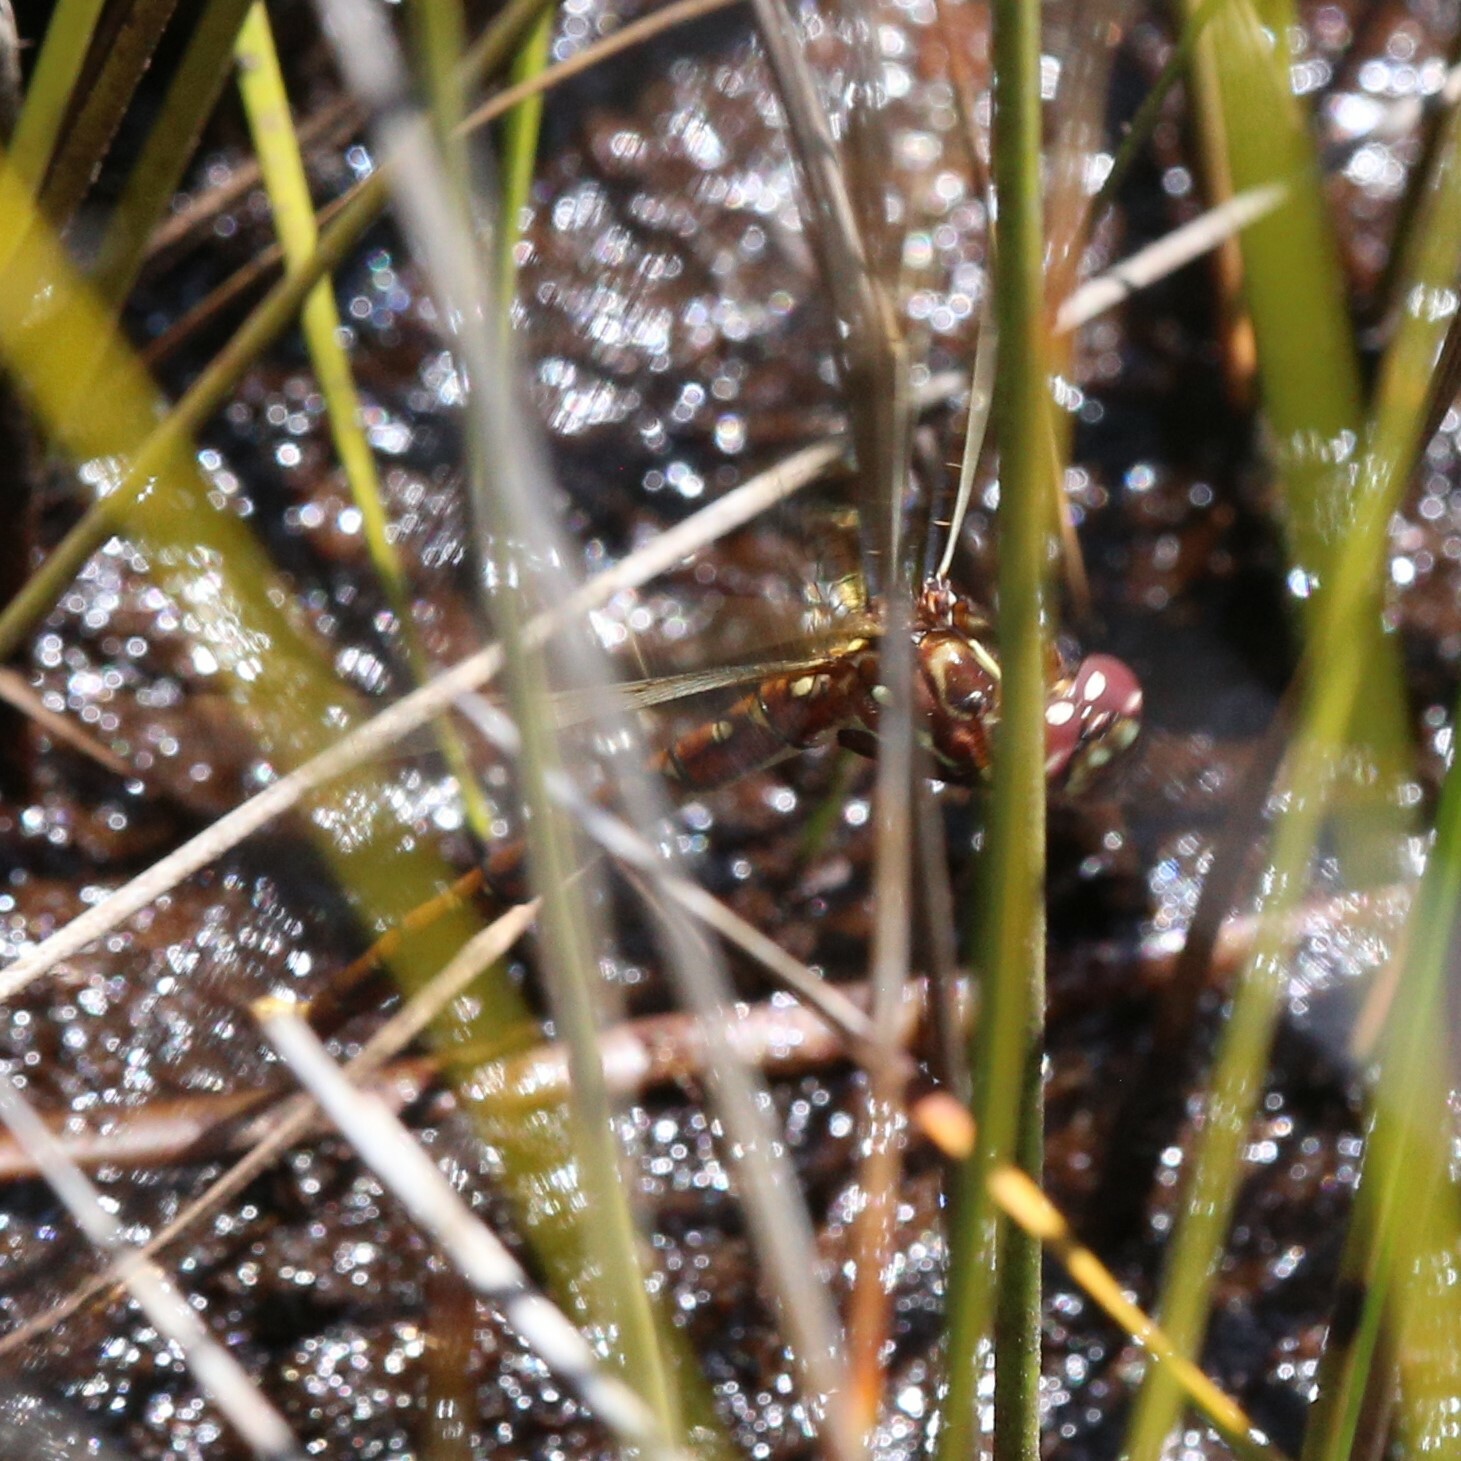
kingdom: Animalia
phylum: Arthropoda
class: Insecta
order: Odonata
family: Synthemistidae
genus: Archaeosynthemis
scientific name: Archaeosynthemis occidentalis
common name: Western brown tigertail
